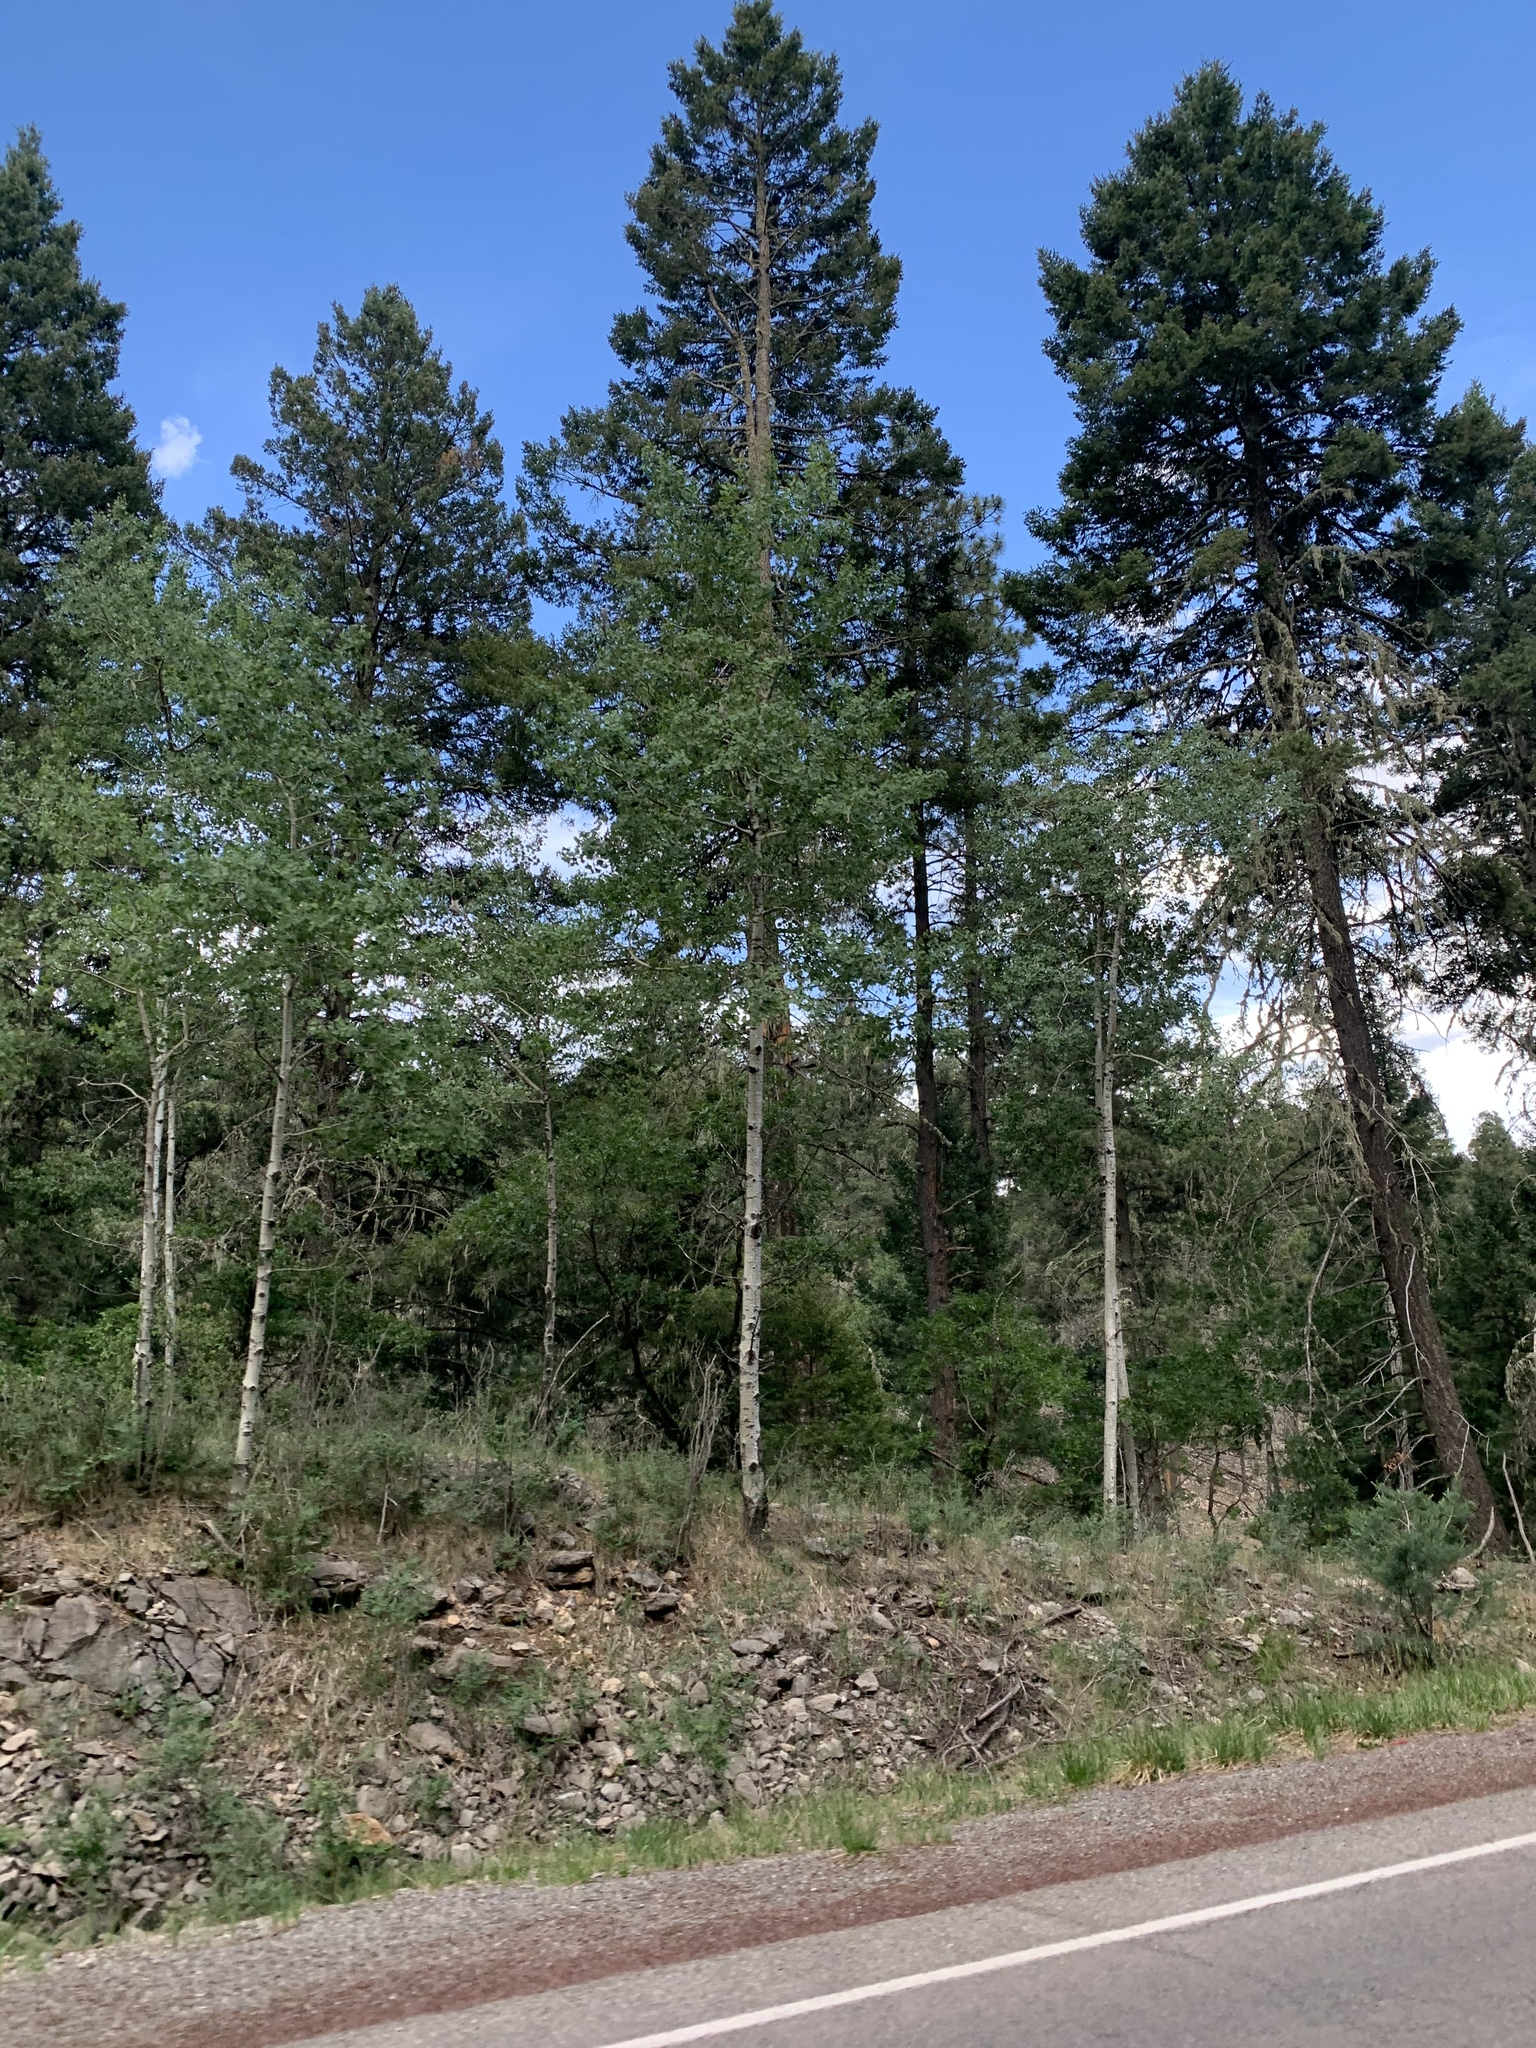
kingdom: Plantae
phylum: Tracheophyta
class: Magnoliopsida
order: Malpighiales
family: Salicaceae
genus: Populus
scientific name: Populus tremuloides
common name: Quaking aspen
